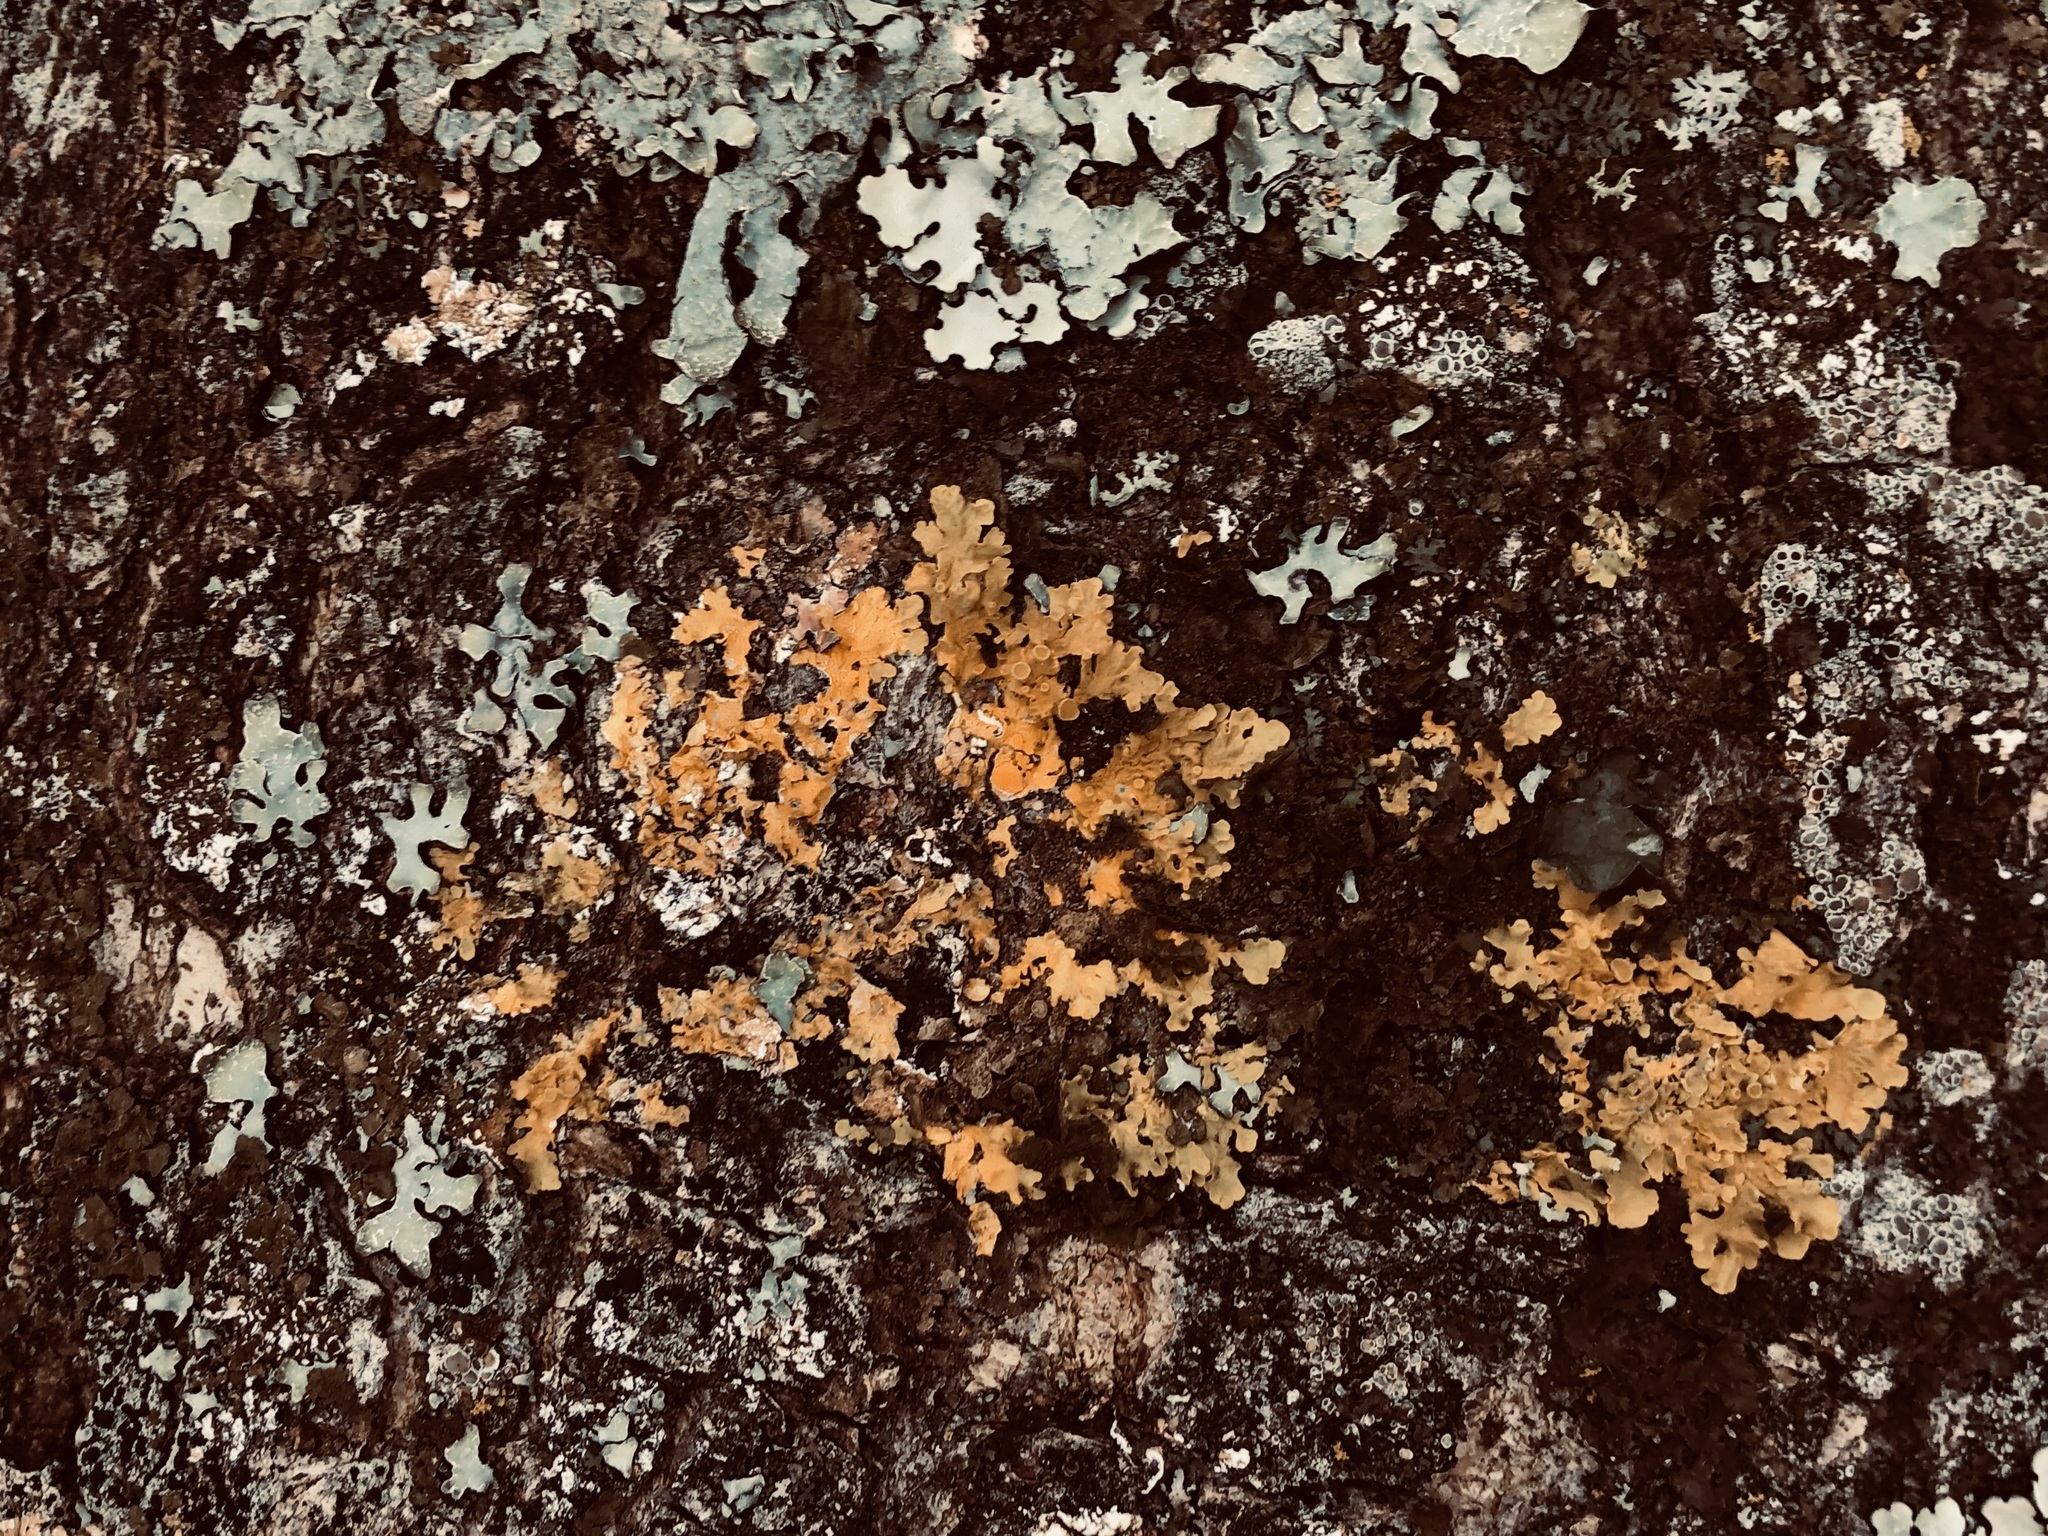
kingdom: Fungi
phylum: Ascomycota
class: Lecanoromycetes
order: Teloschistales
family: Teloschistaceae
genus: Xanthoria
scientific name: Xanthoria parietina
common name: Common orange lichen
